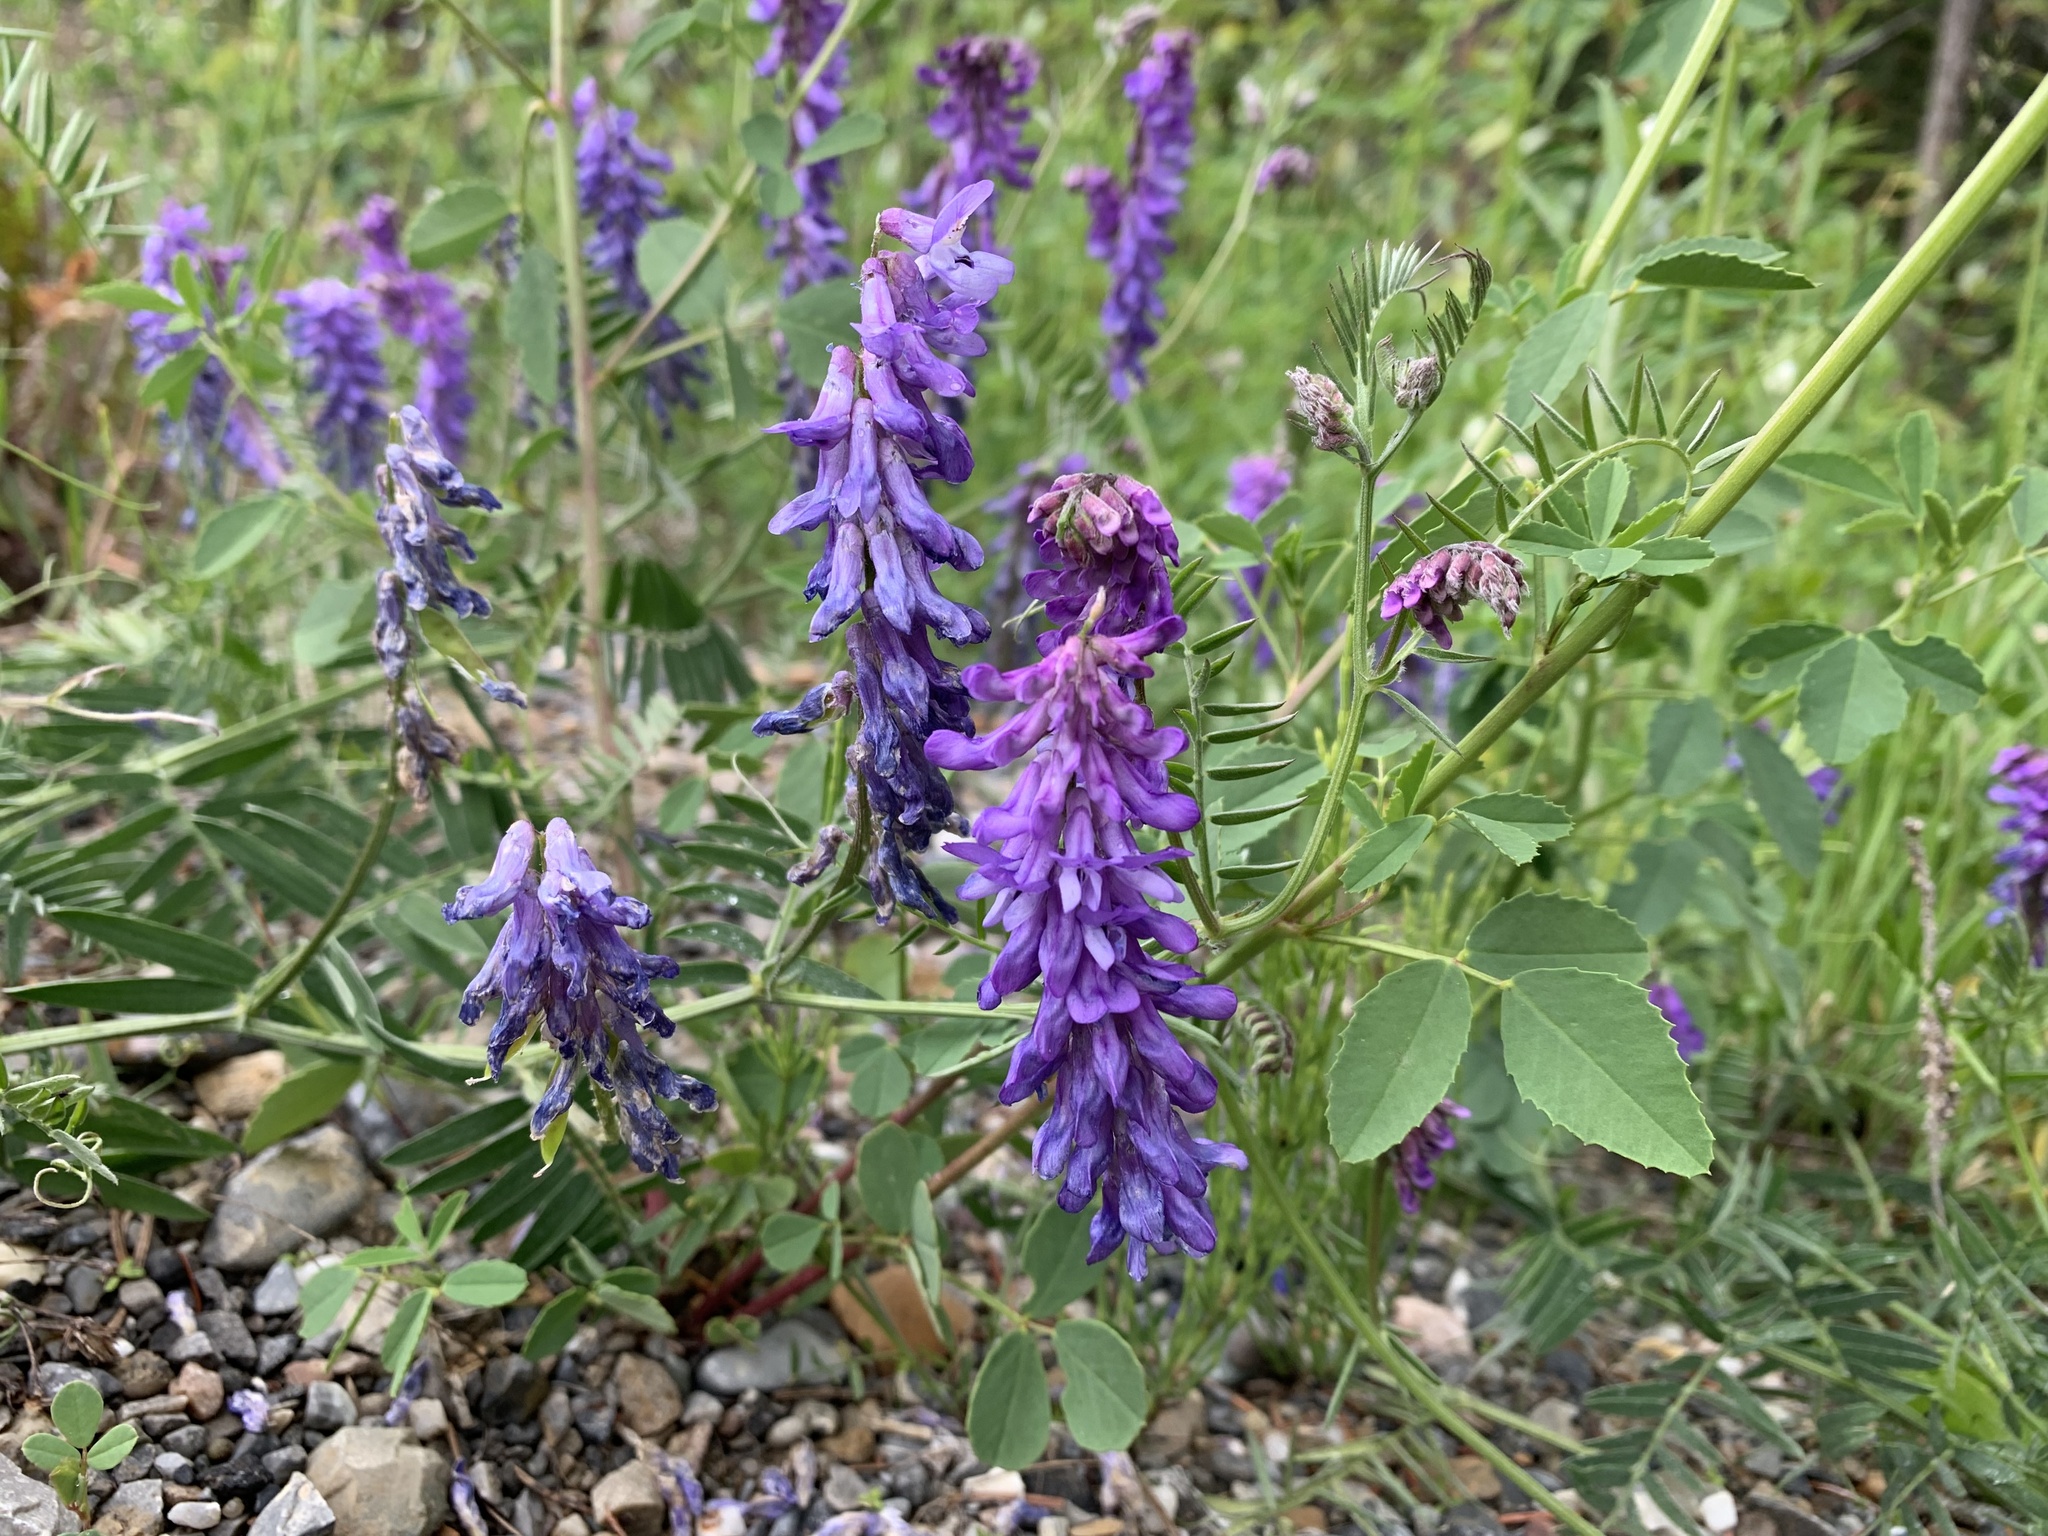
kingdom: Plantae
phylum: Tracheophyta
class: Magnoliopsida
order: Fabales
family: Fabaceae
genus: Vicia
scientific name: Vicia cracca
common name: Bird vetch
